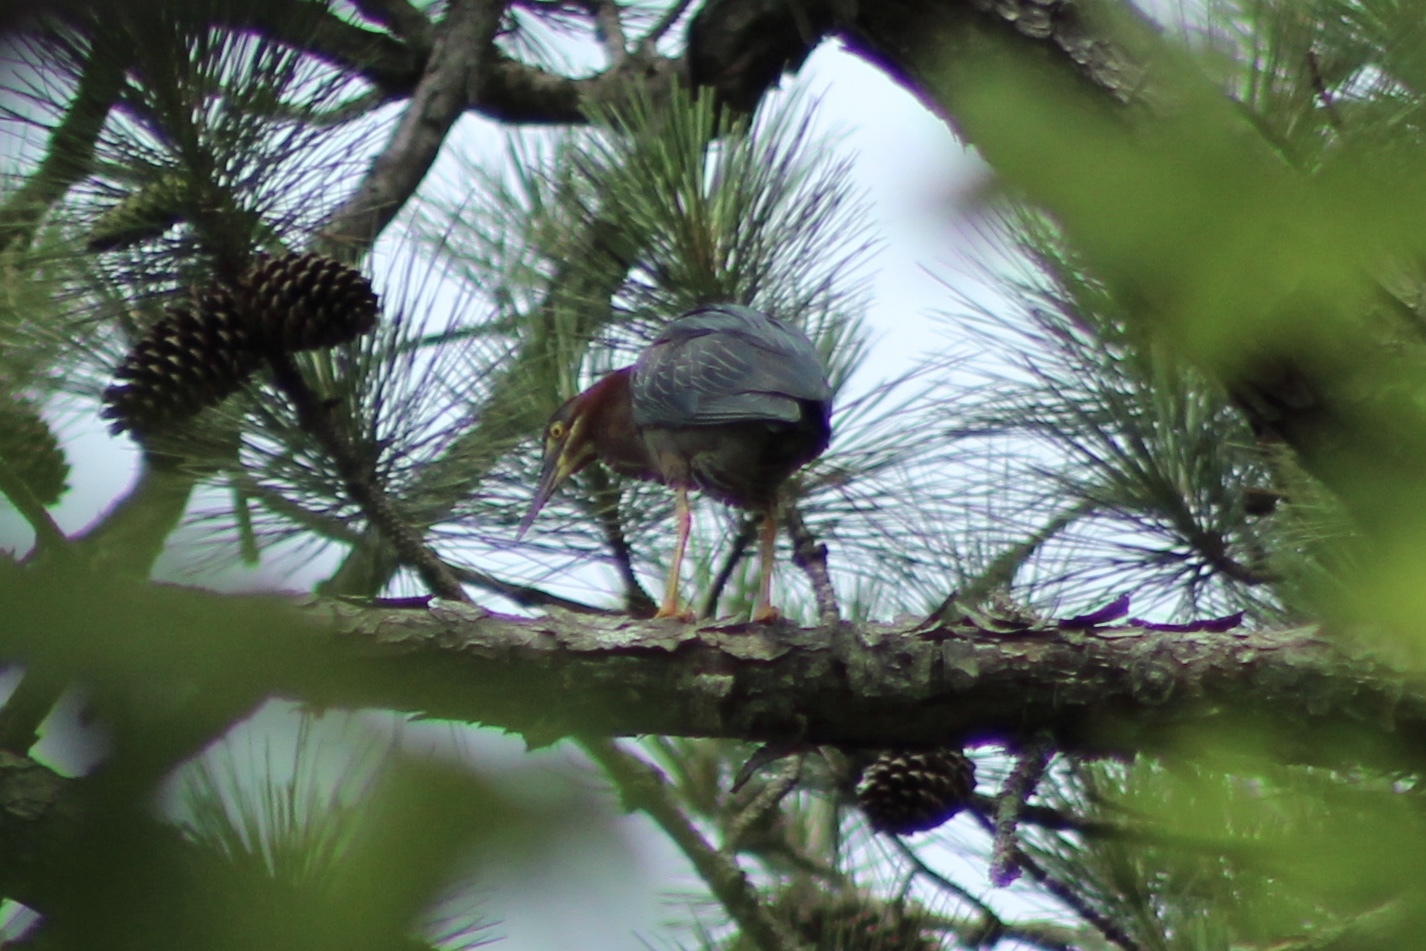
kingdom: Animalia
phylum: Chordata
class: Aves
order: Pelecaniformes
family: Ardeidae
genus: Butorides
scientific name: Butorides virescens
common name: Green heron
